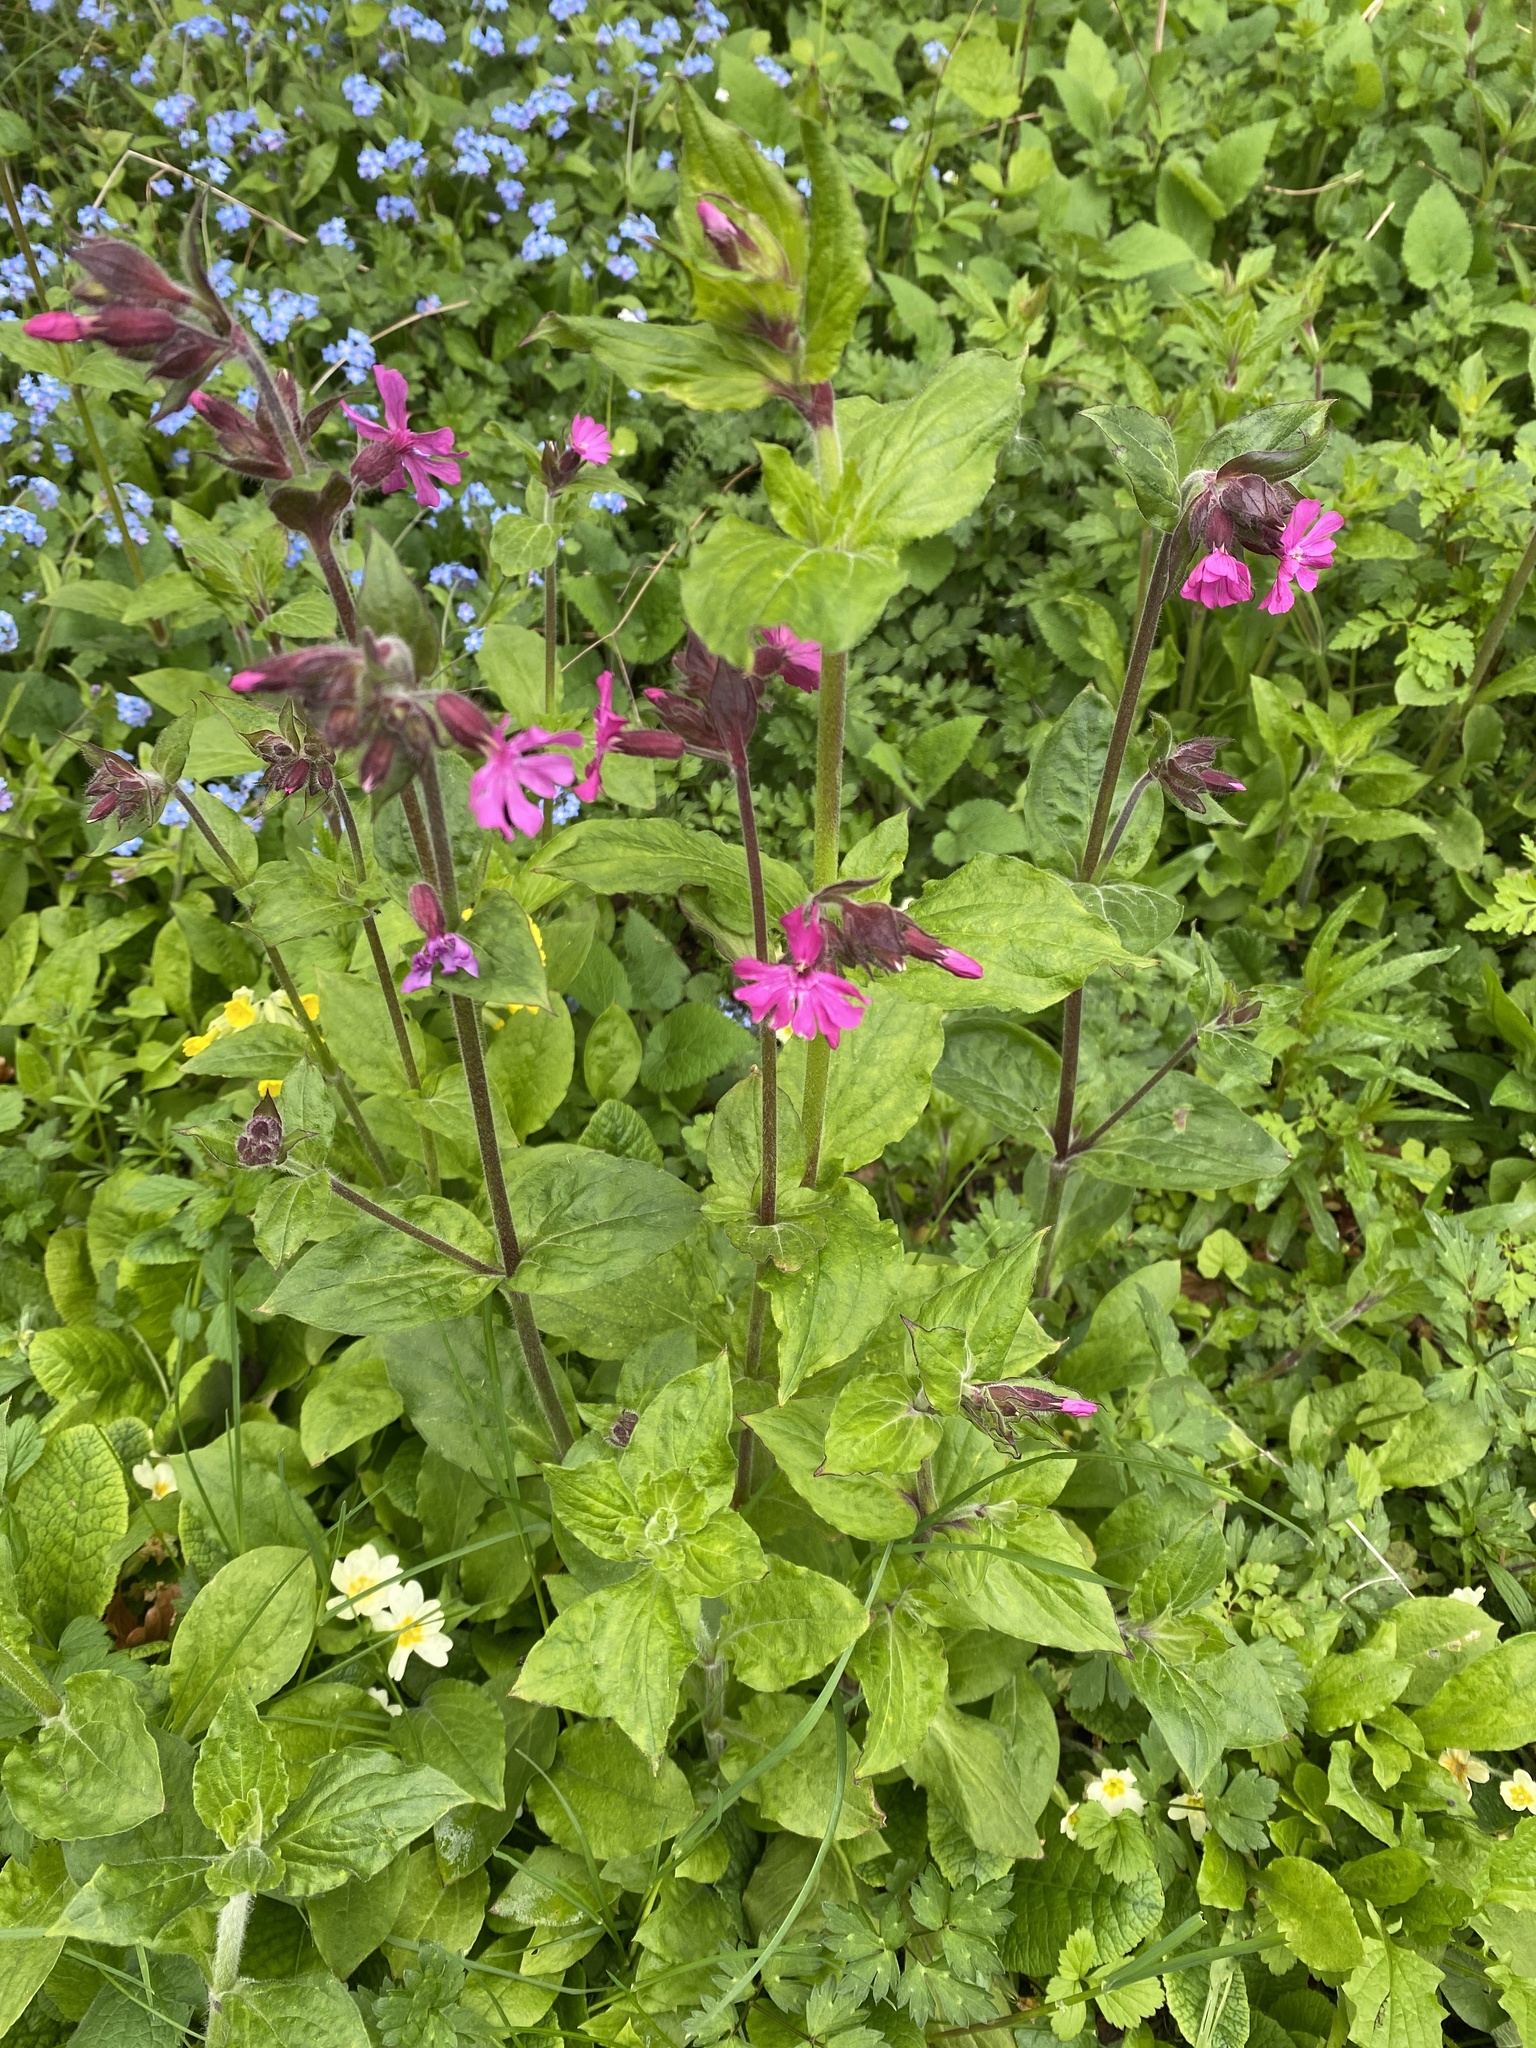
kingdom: Plantae
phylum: Tracheophyta
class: Magnoliopsida
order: Caryophyllales
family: Caryophyllaceae
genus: Silene
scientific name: Silene dioica
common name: Red campion
